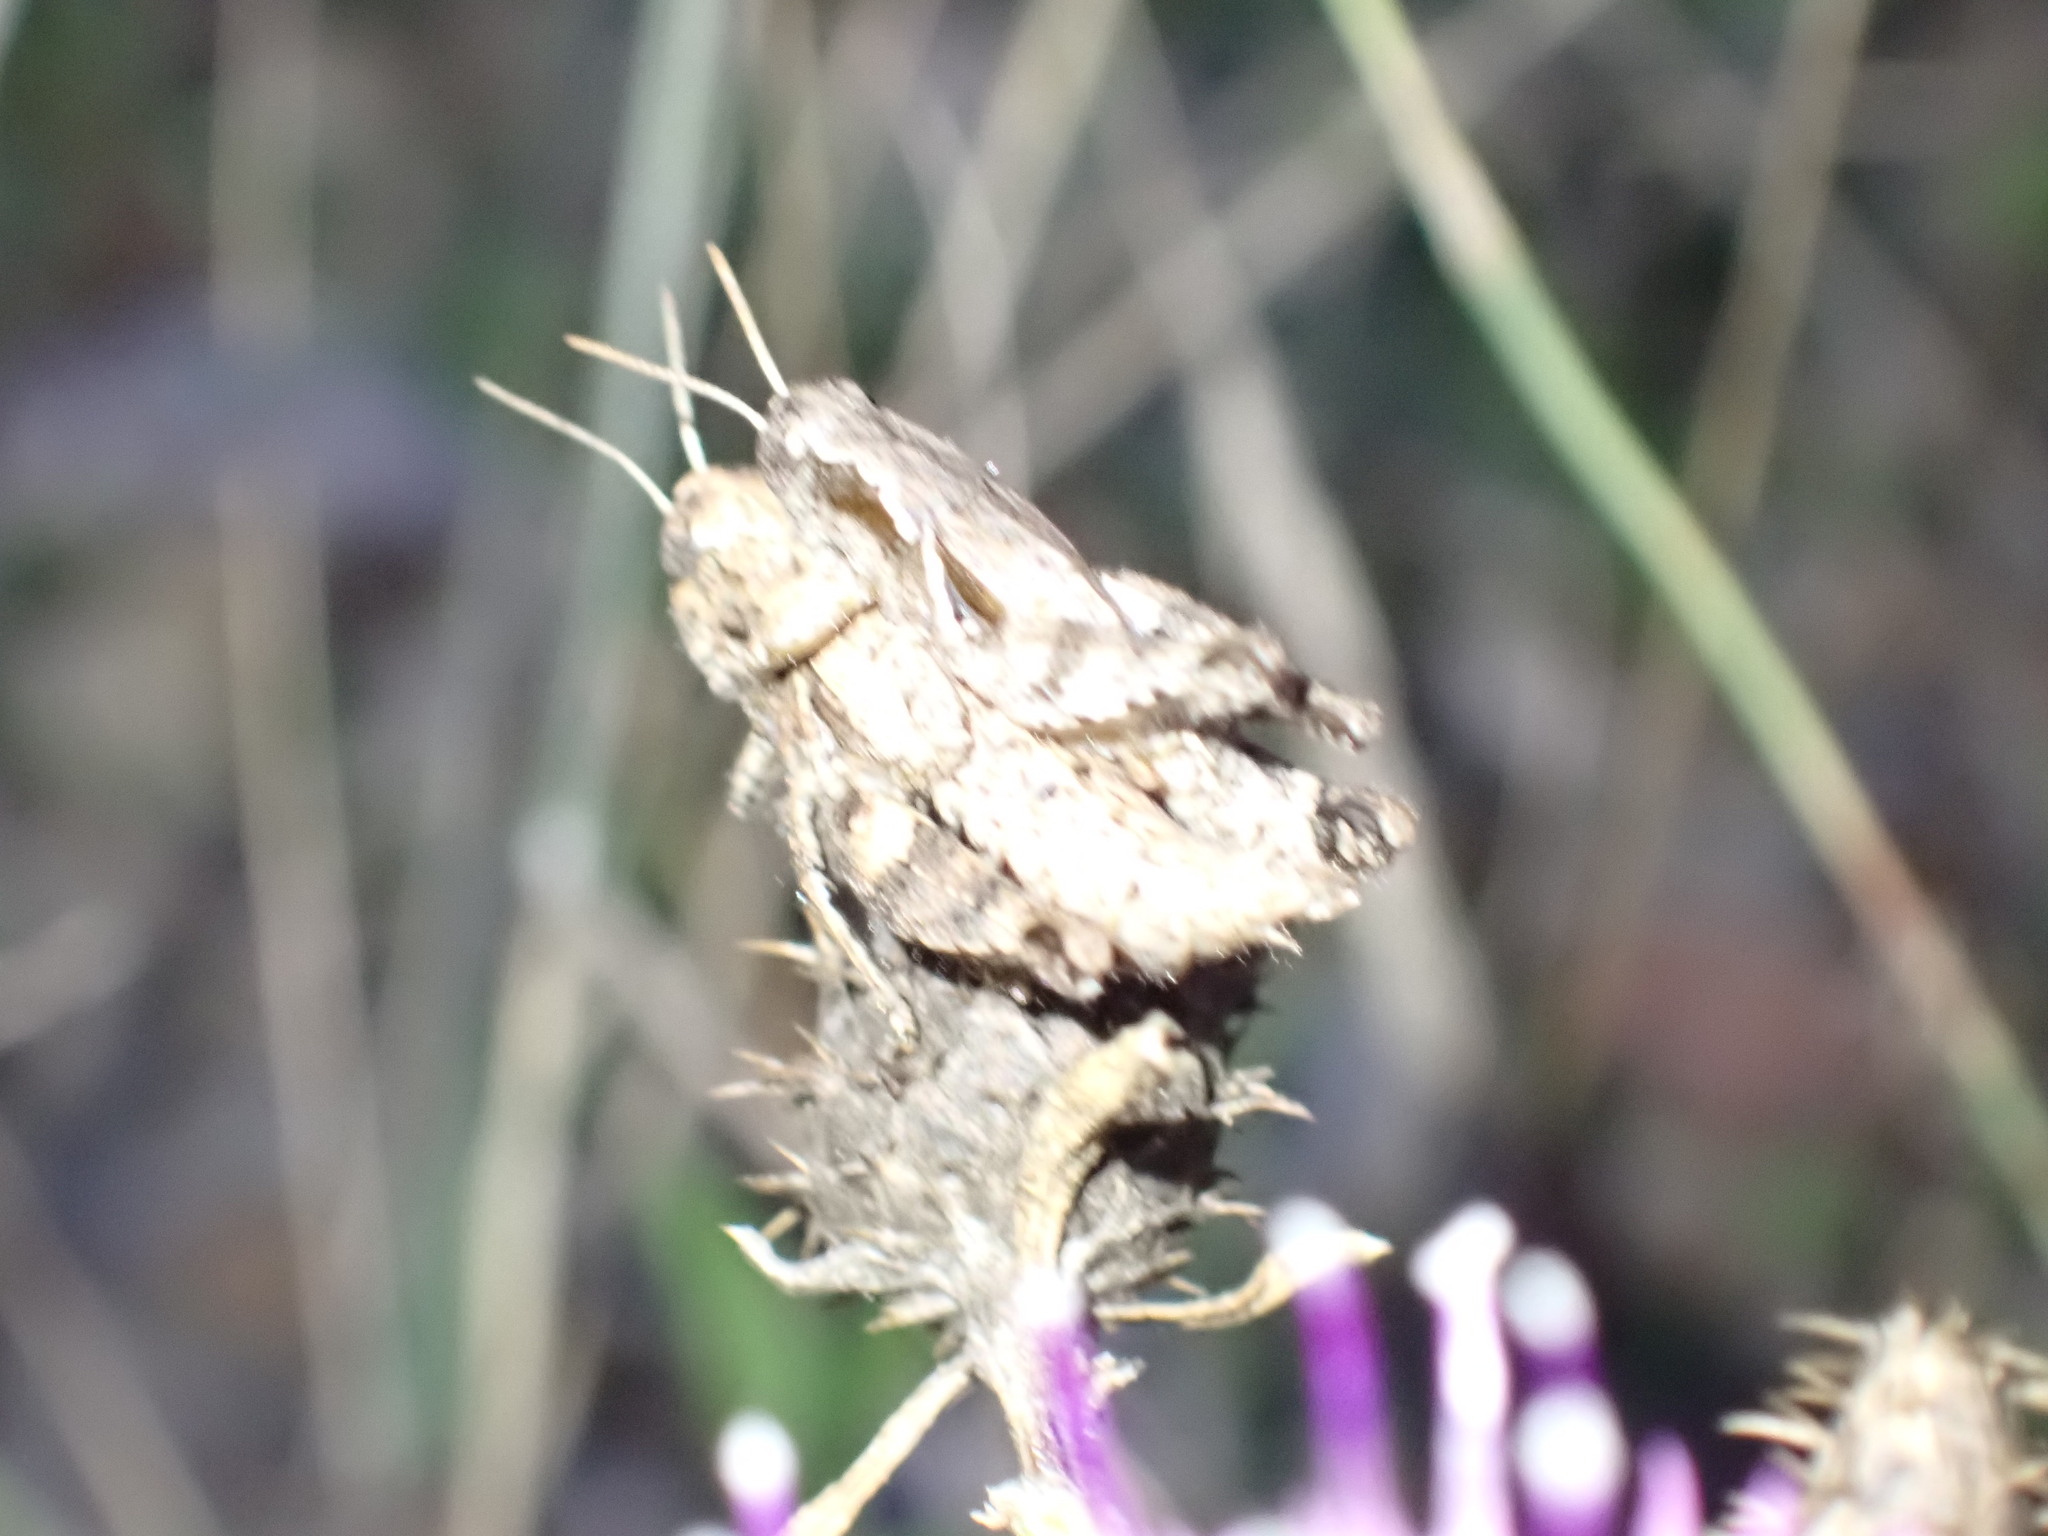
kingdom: Animalia
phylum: Arthropoda
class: Insecta
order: Orthoptera
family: Acrididae
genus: Pezotettix
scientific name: Pezotettix giornae
